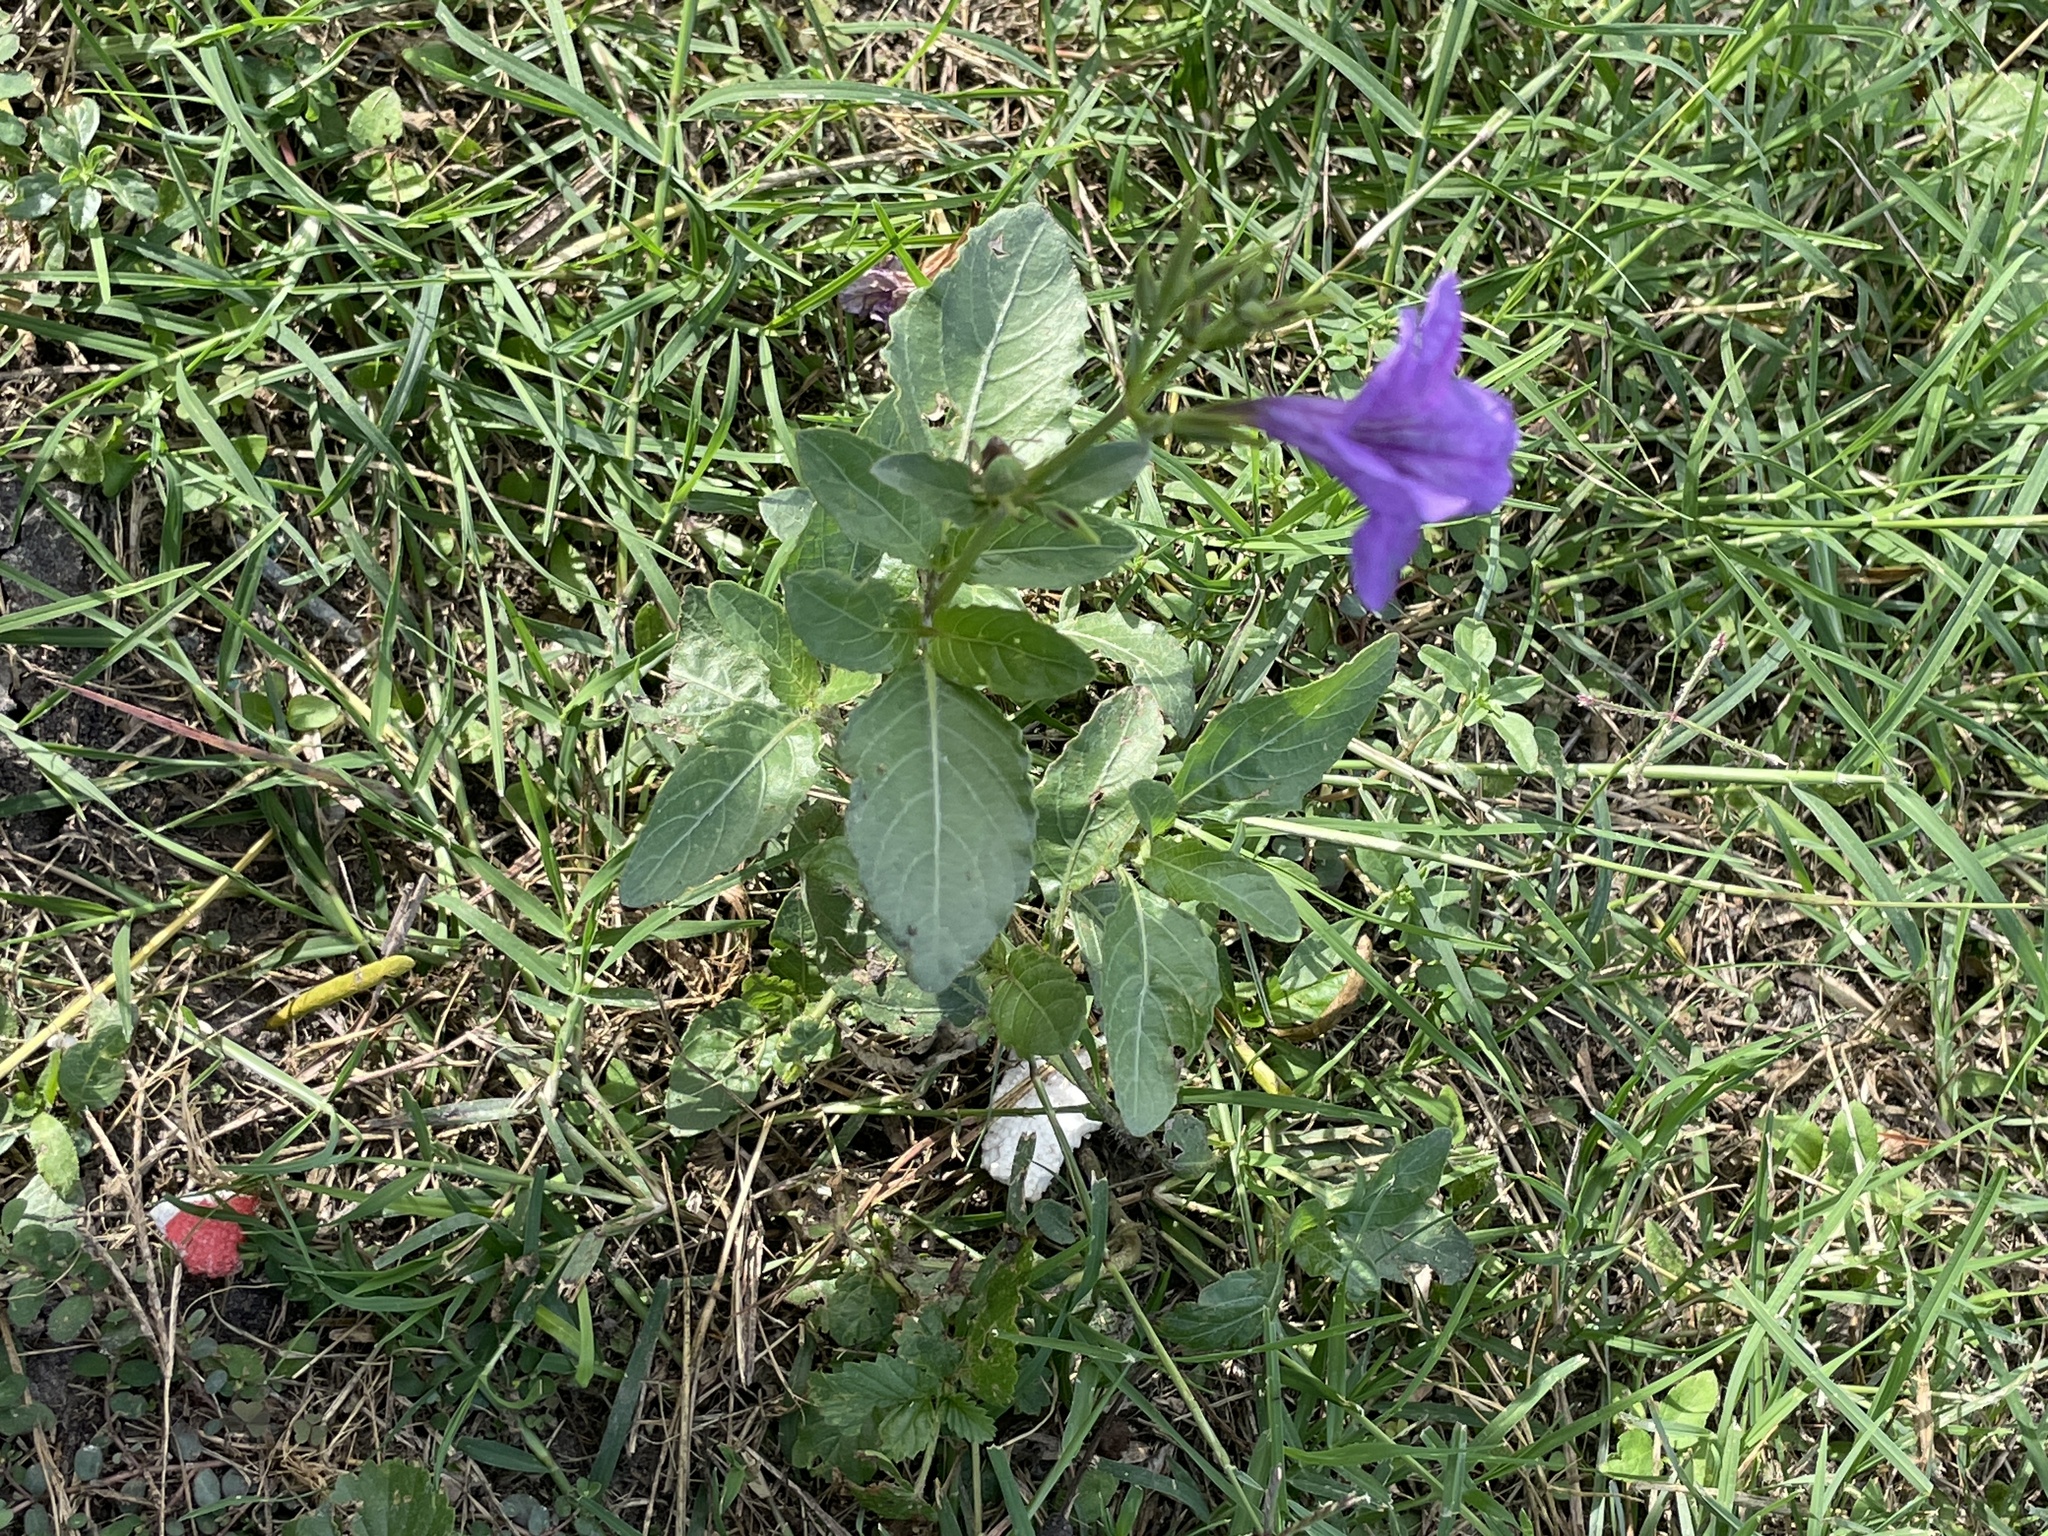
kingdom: Plantae
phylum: Tracheophyta
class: Magnoliopsida
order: Lamiales
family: Acanthaceae
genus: Ruellia
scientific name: Ruellia ciliatiflora
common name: Hairyflower wild petunia
